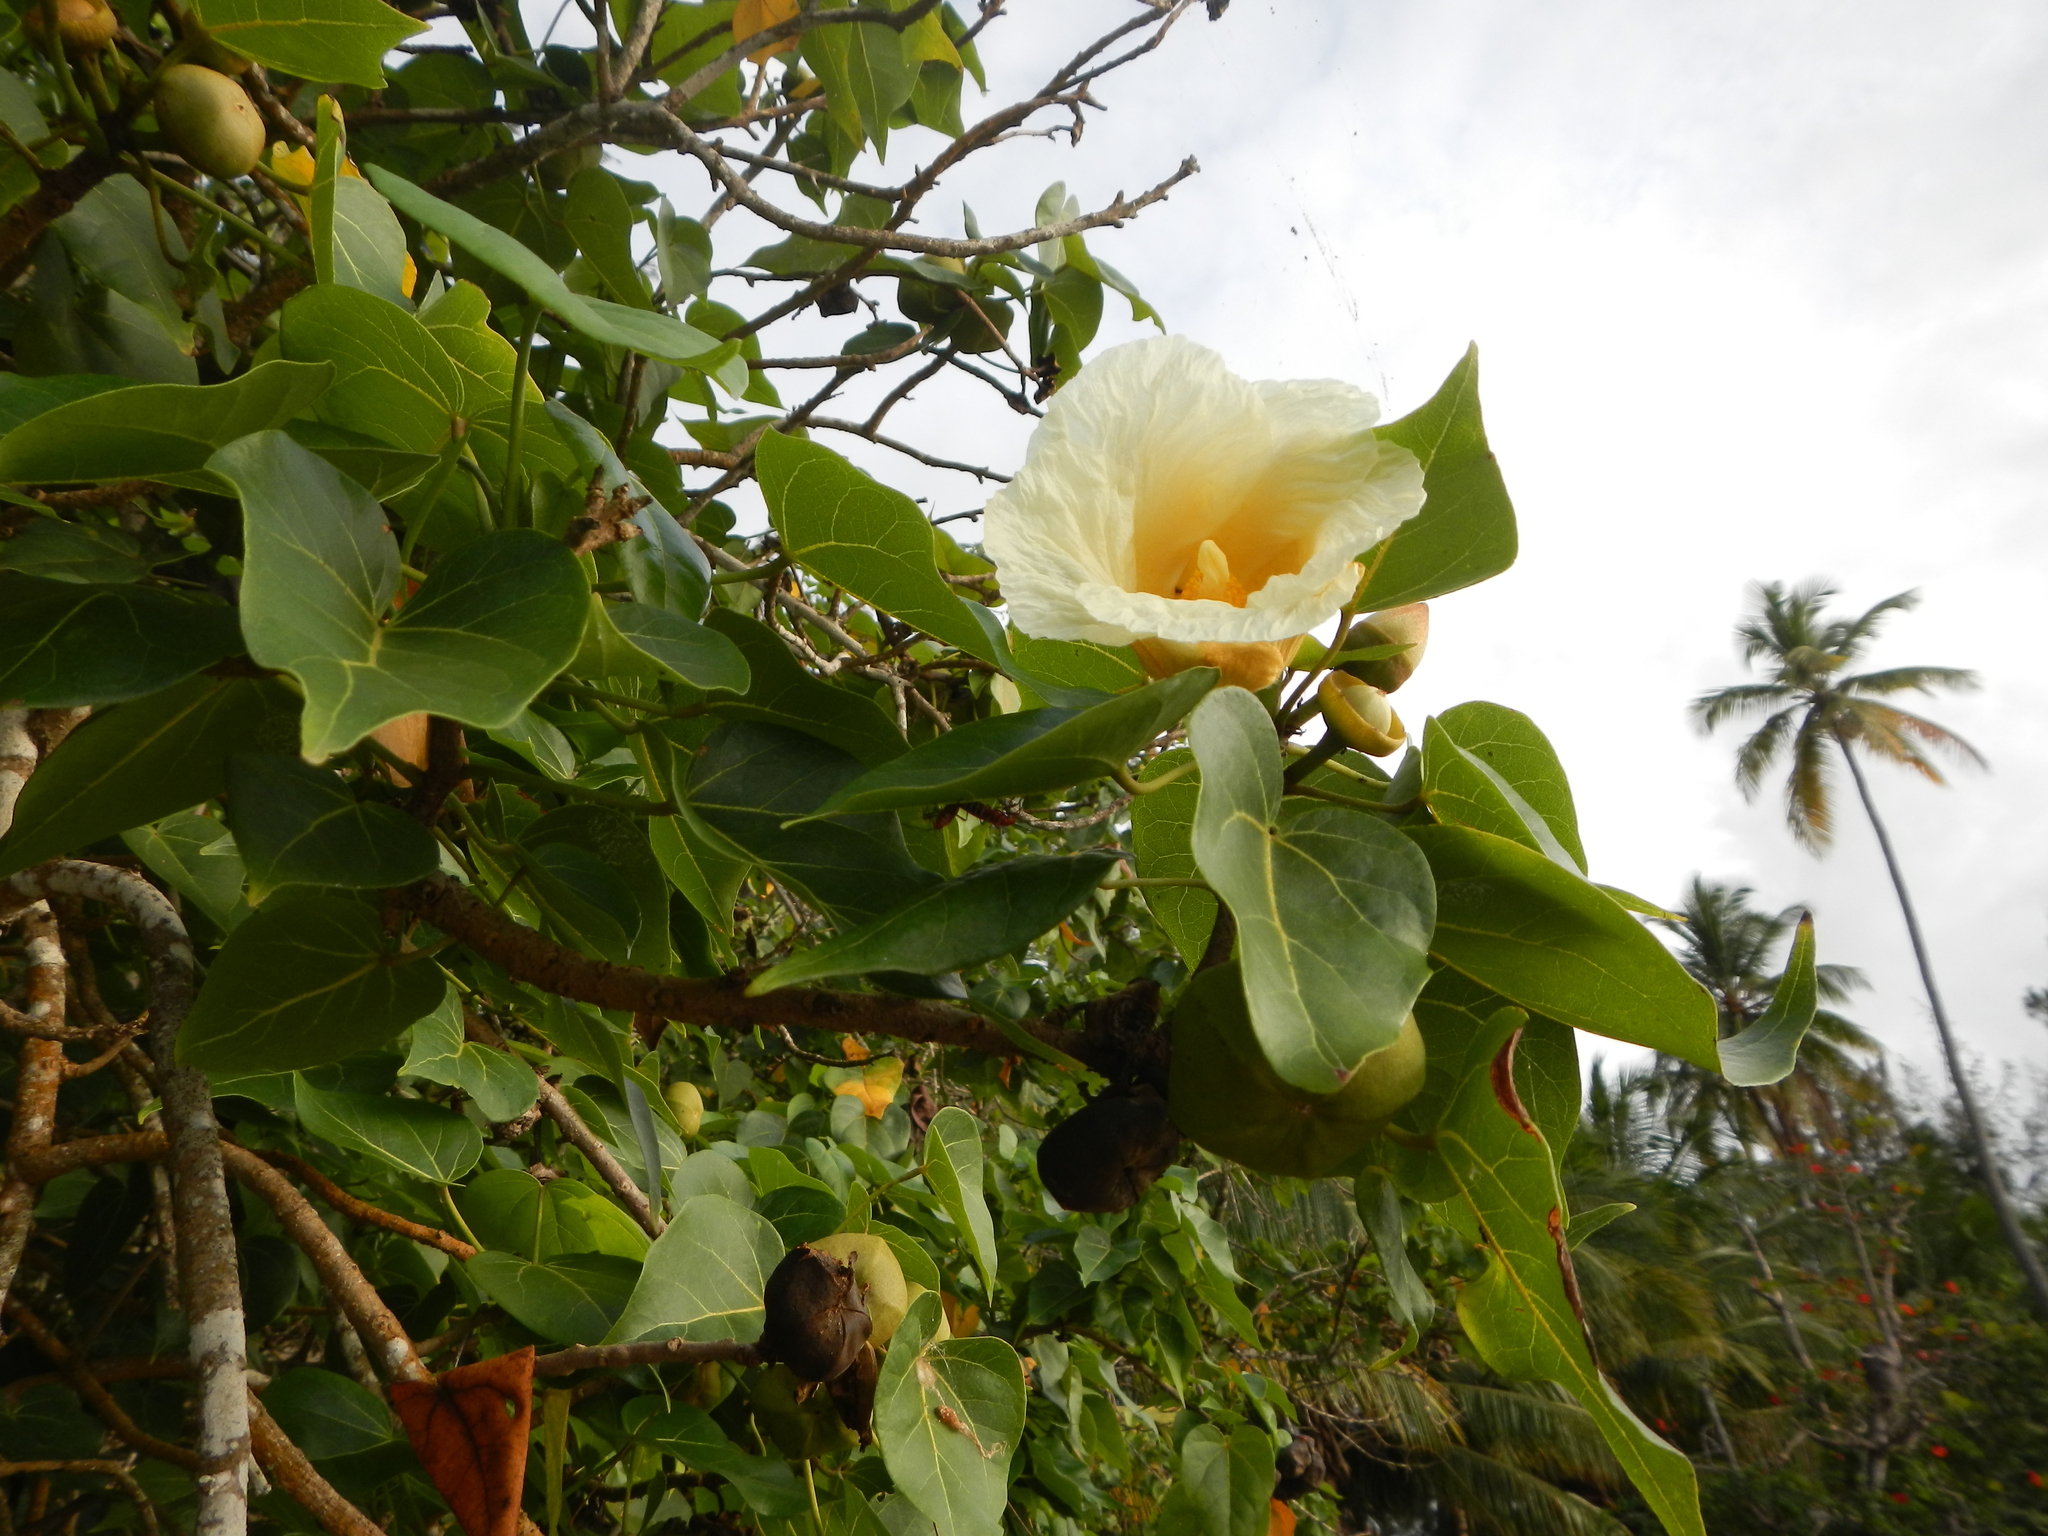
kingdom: Plantae
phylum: Tracheophyta
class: Magnoliopsida
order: Malvales
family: Malvaceae
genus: Thespesia
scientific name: Thespesia populnea
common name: Seaside mahoe
